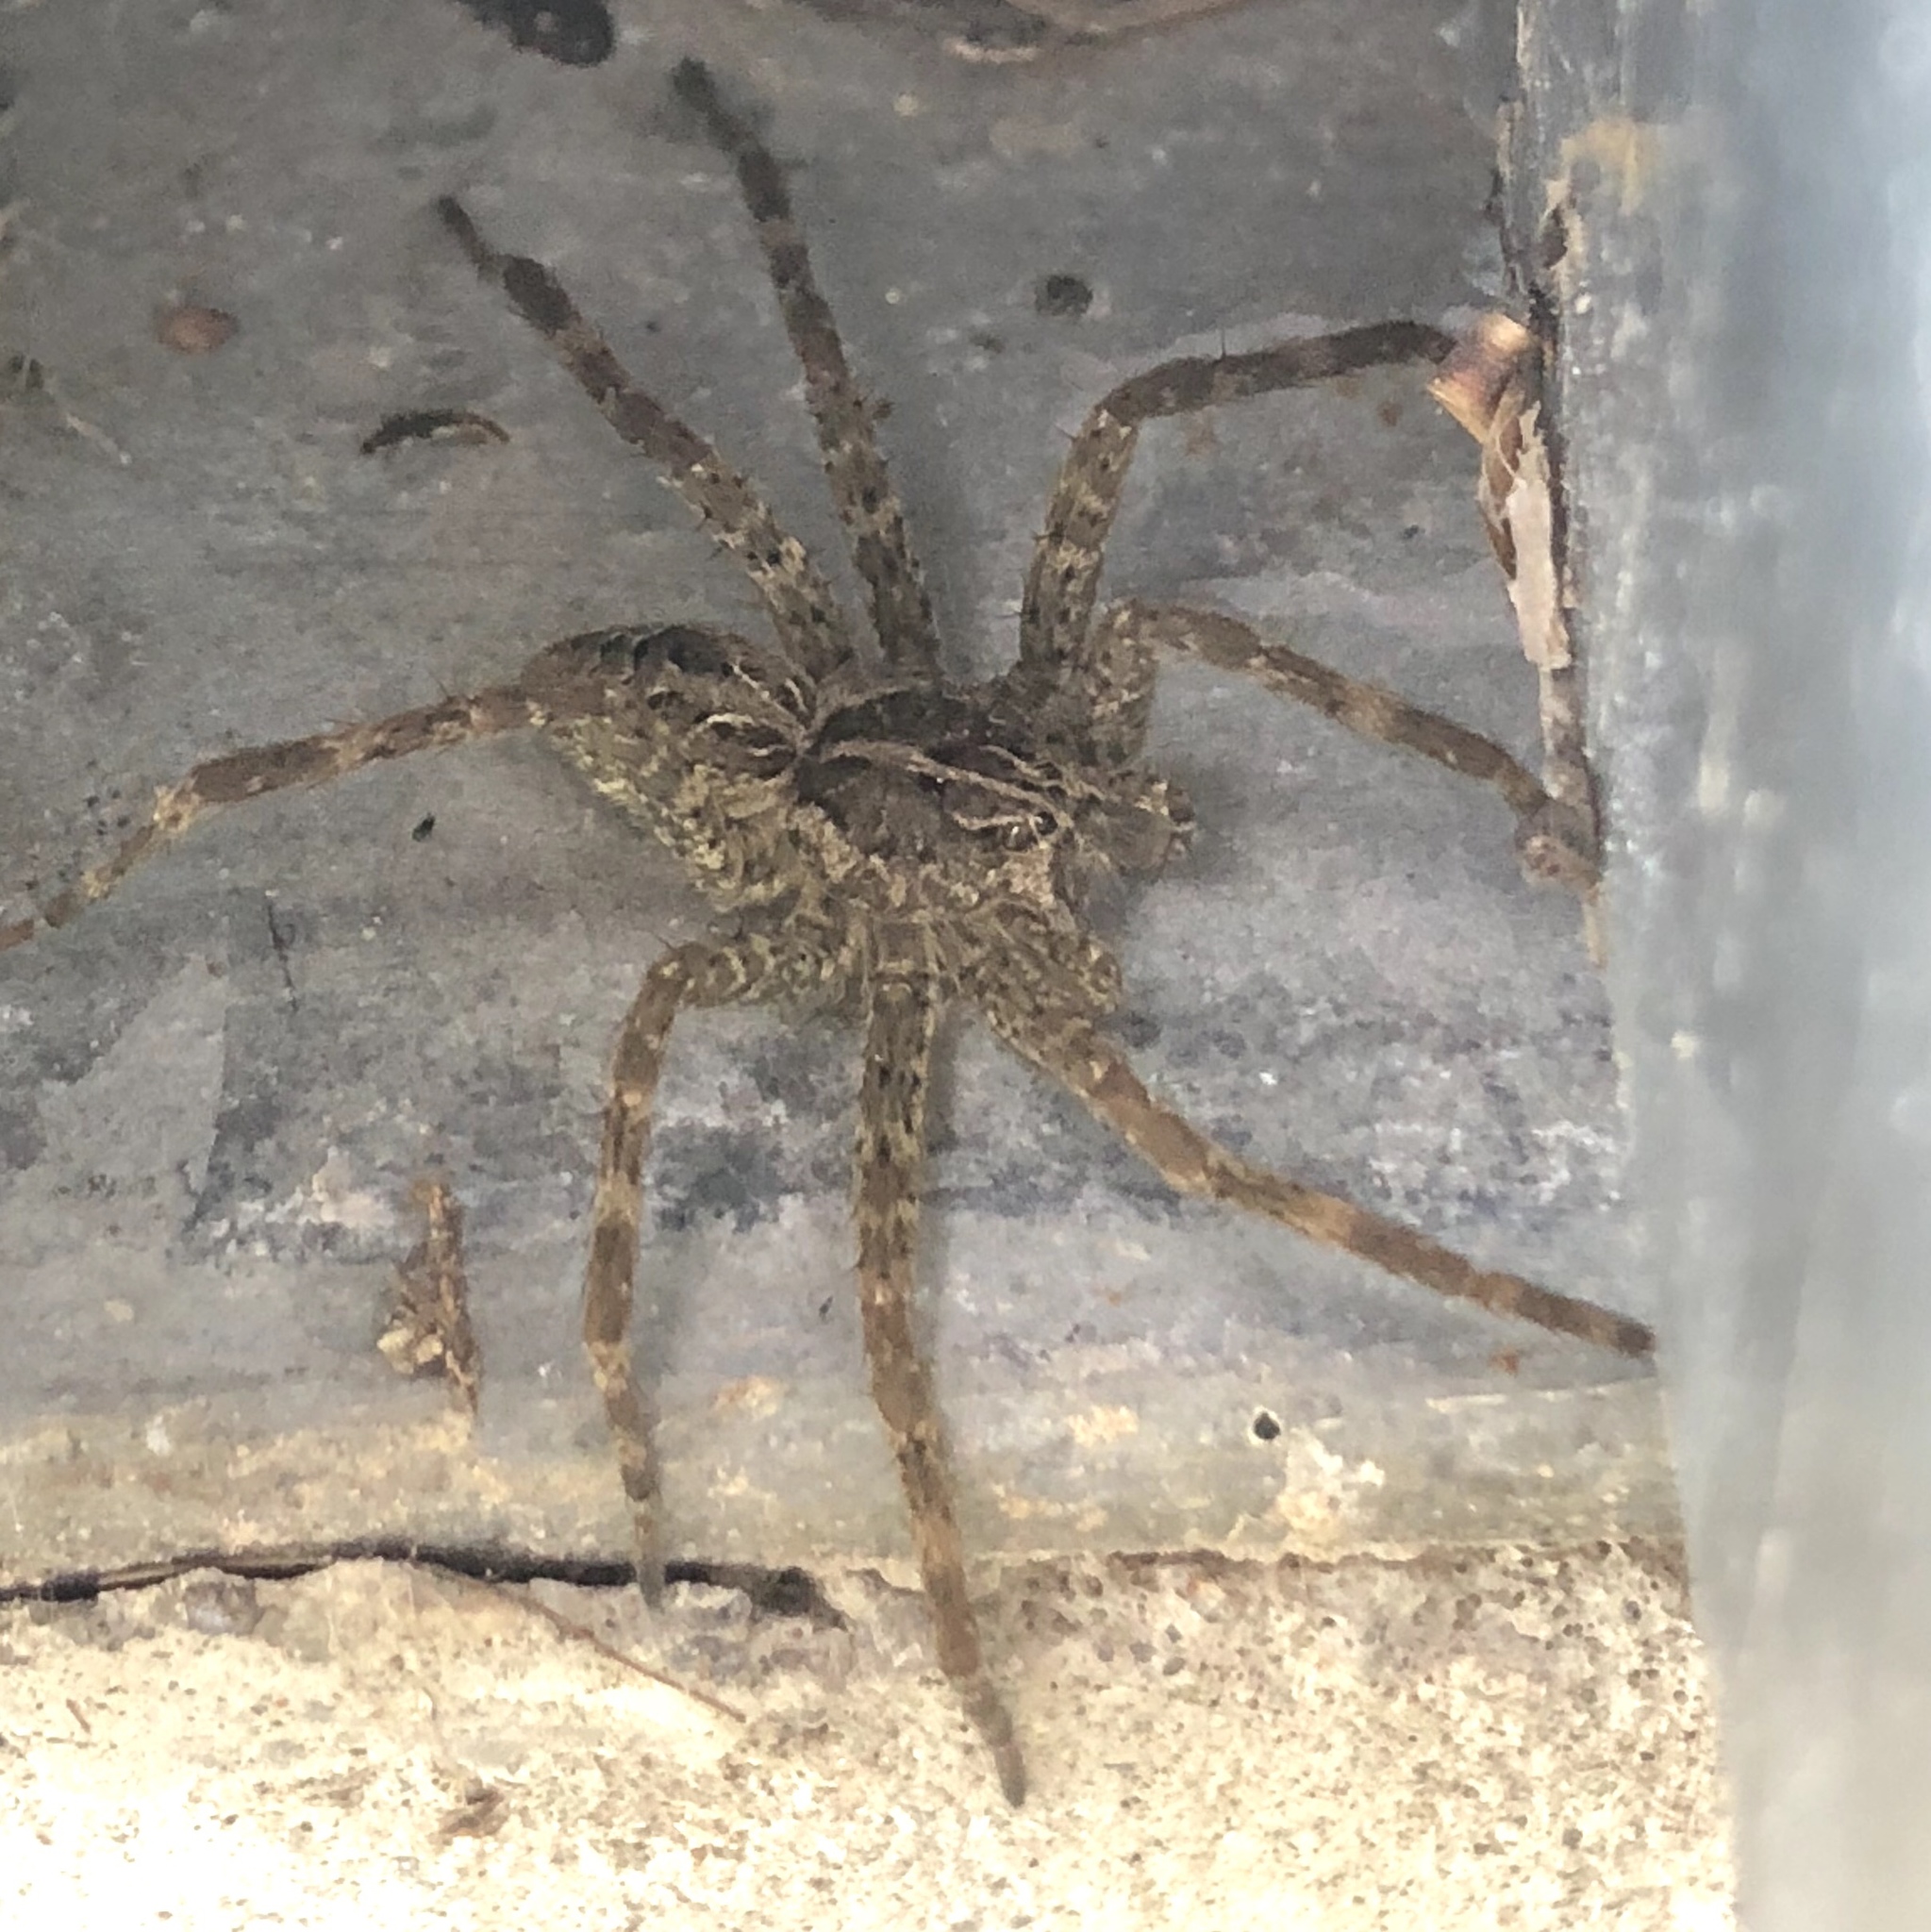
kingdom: Animalia
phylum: Arthropoda
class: Arachnida
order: Araneae
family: Pisauridae
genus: Dolomedes
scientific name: Dolomedes scriptus
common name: Striped fishing spider
